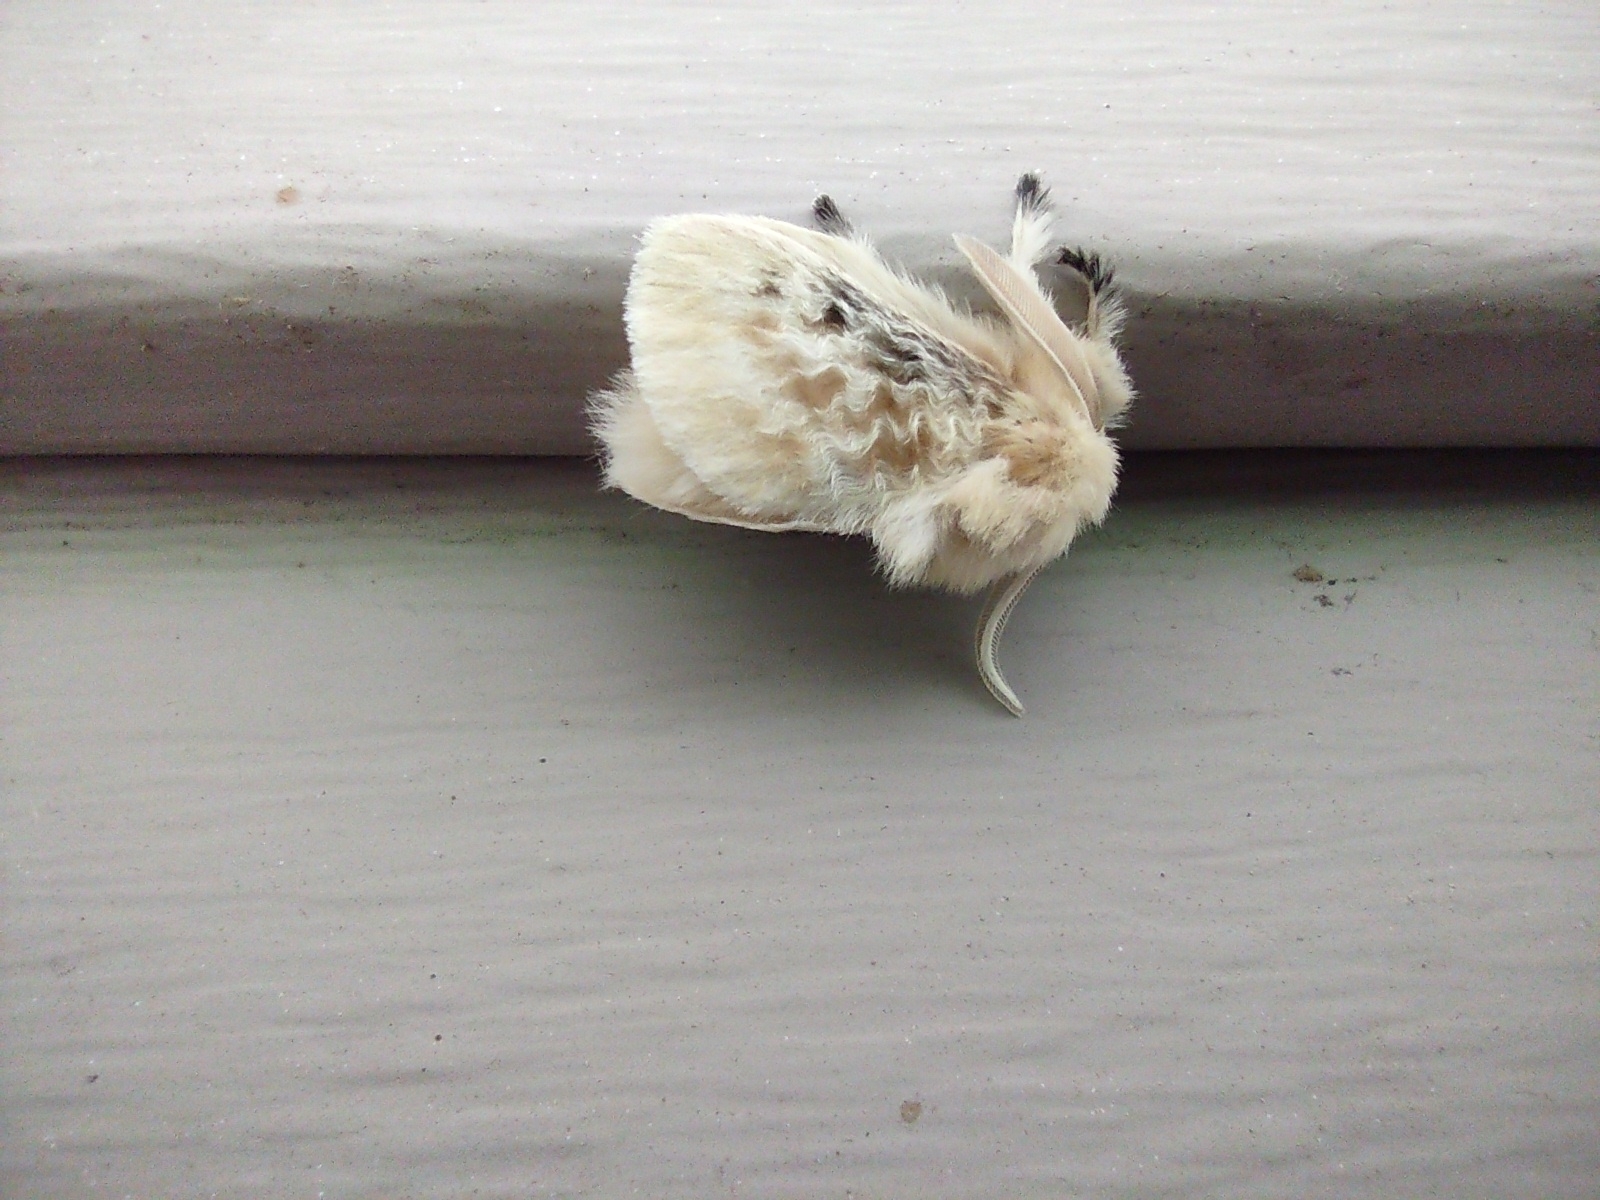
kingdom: Animalia
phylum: Arthropoda
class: Insecta
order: Lepidoptera
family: Megalopygidae
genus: Megalopyge
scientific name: Megalopyge crispata
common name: Black-waved flannel moth
